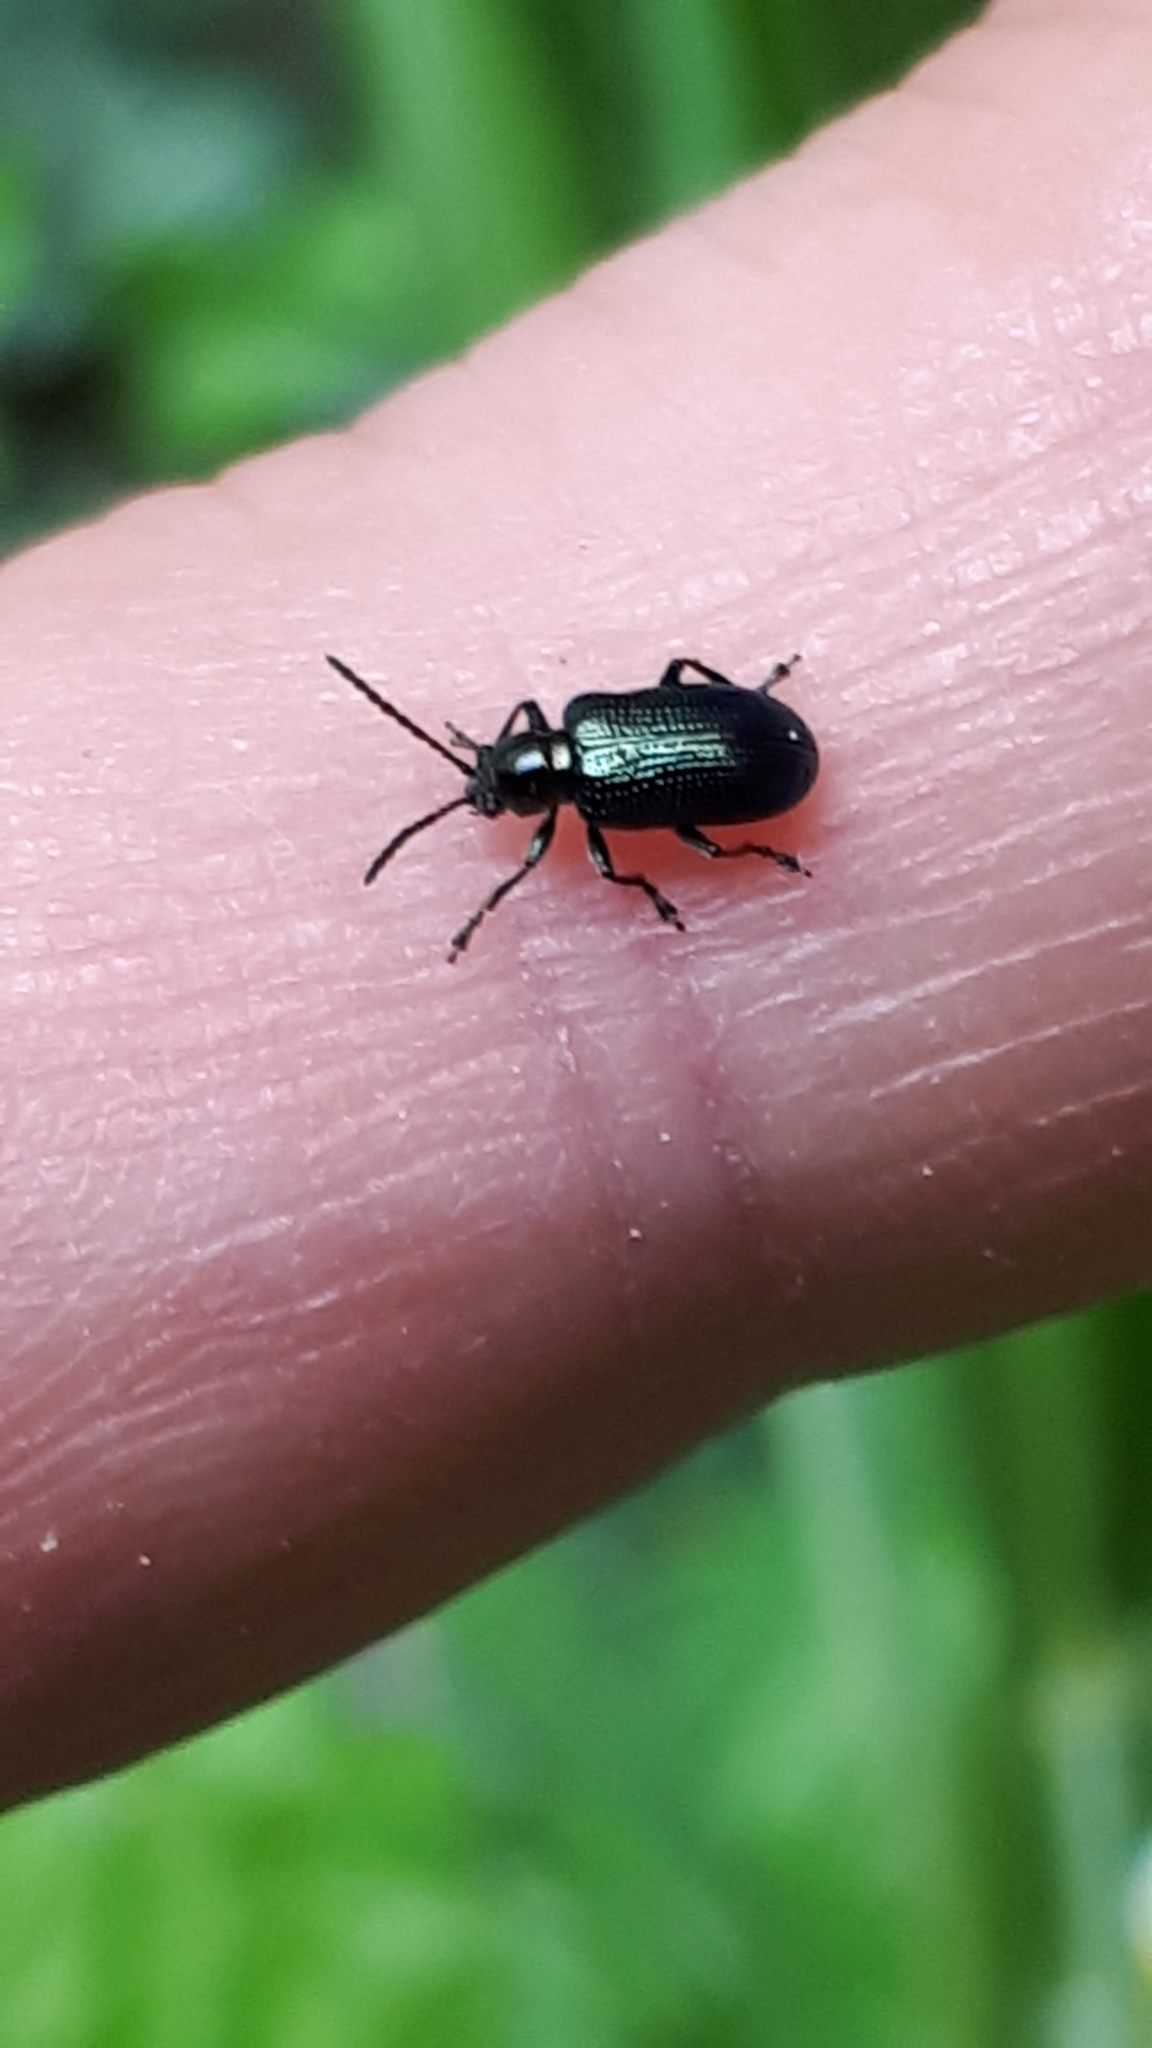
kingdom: Animalia
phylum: Arthropoda
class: Insecta
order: Coleoptera
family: Chrysomelidae
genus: Oulema
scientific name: Oulema gallaeciana
